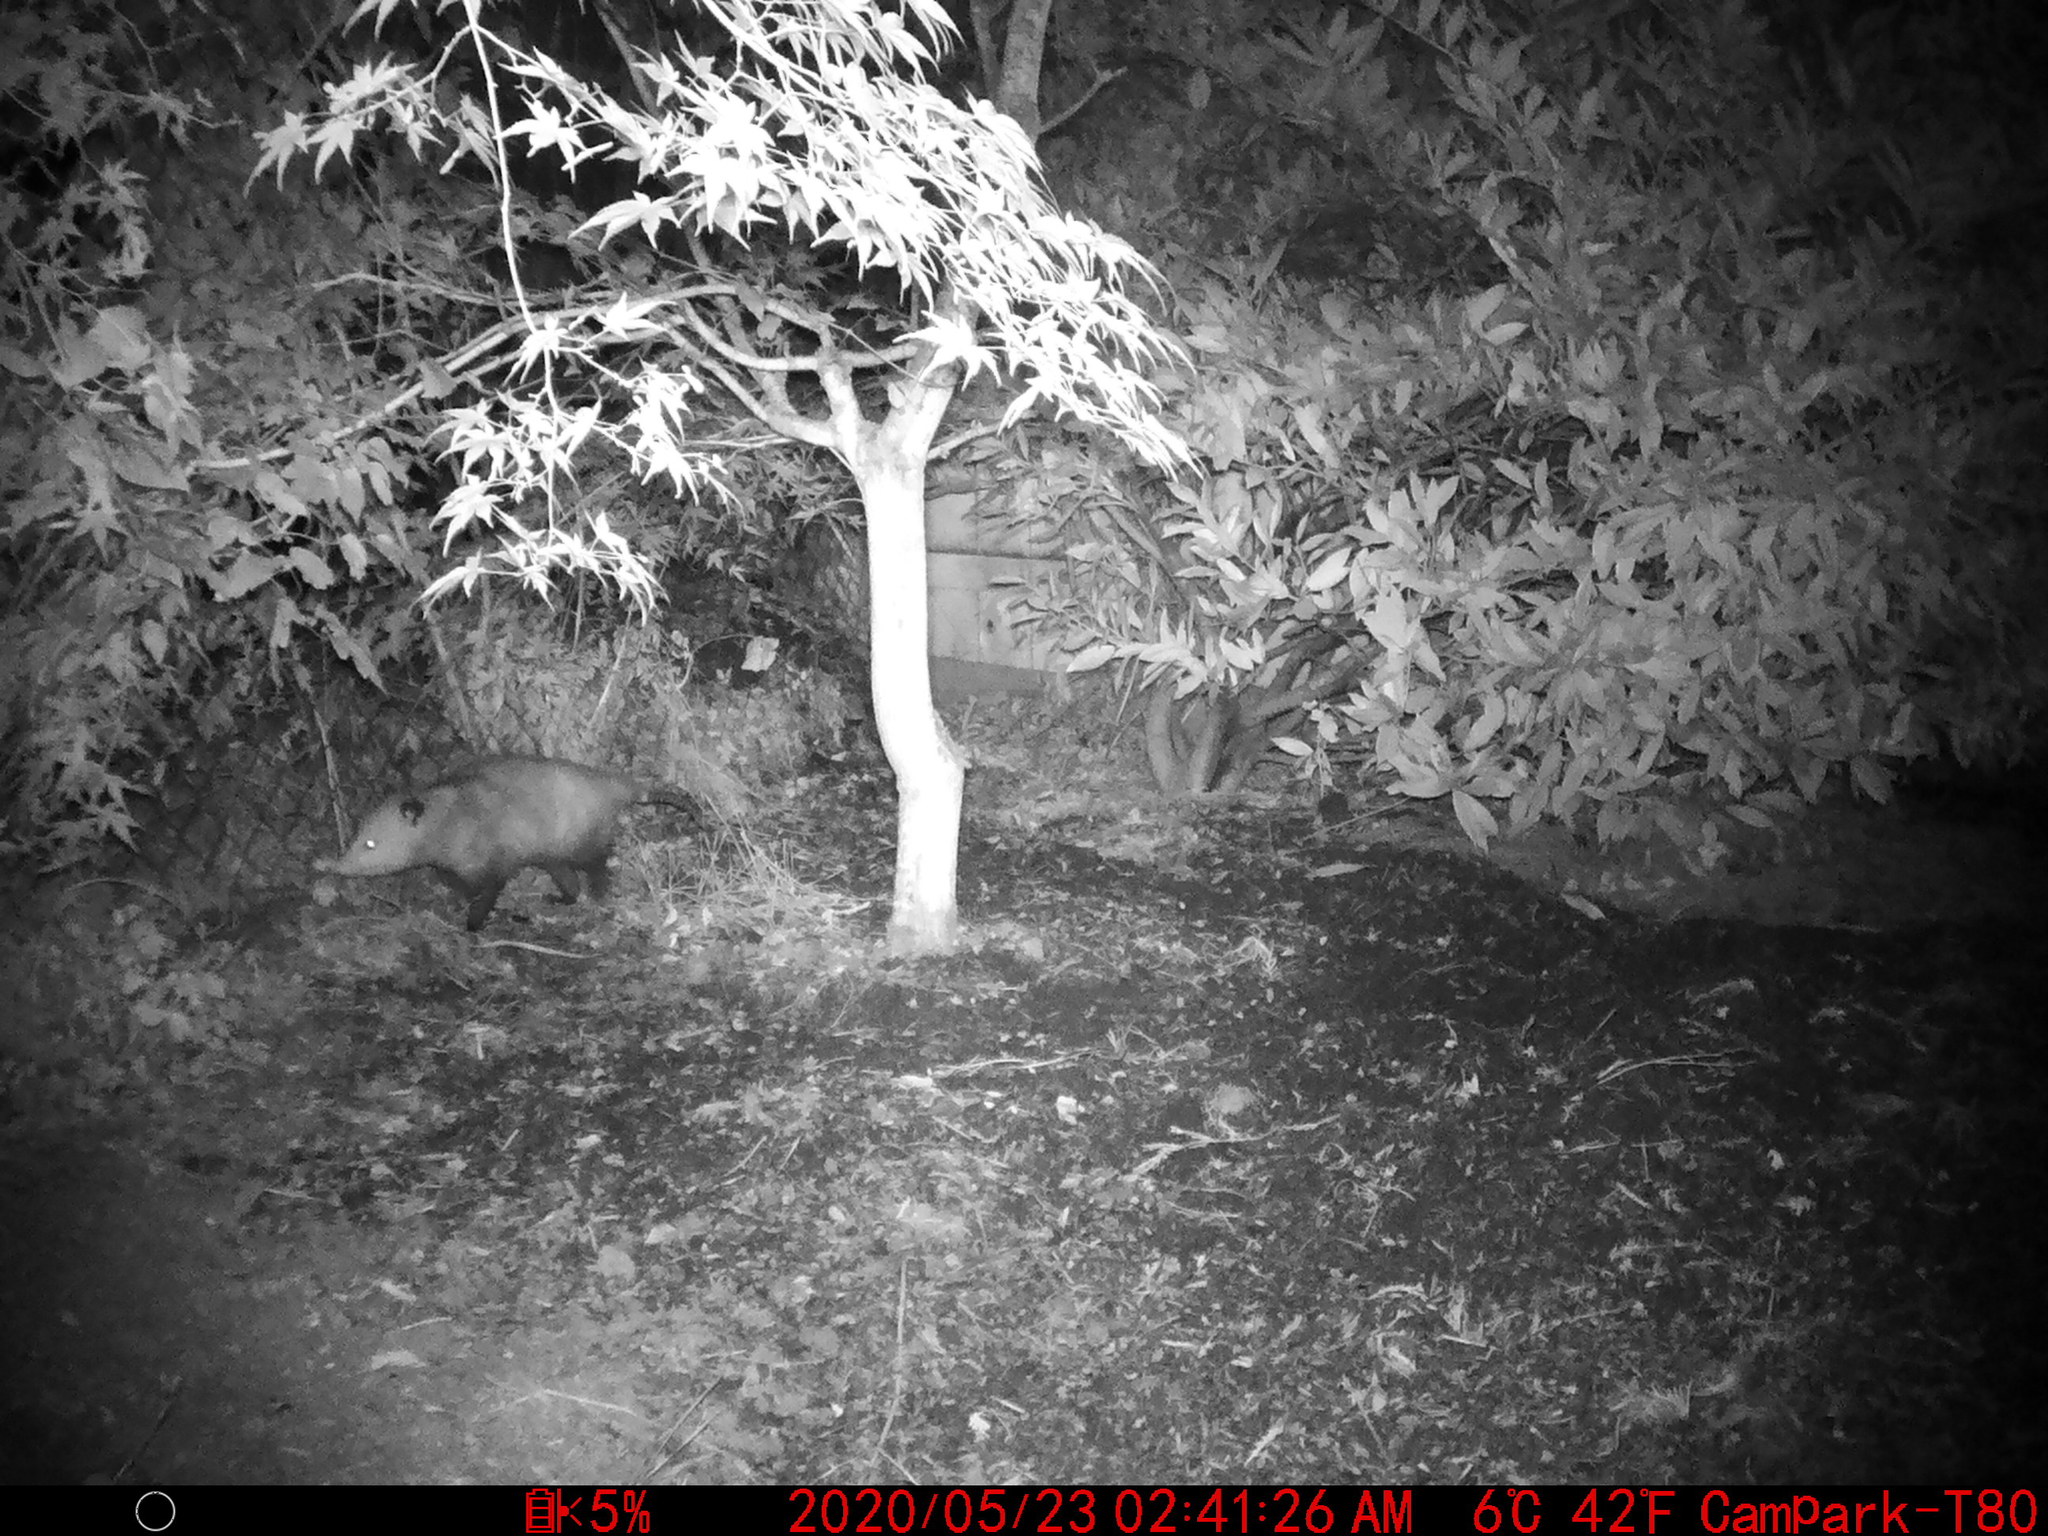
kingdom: Animalia
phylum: Chordata
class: Mammalia
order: Didelphimorphia
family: Didelphidae
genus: Didelphis
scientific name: Didelphis virginiana
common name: Virginia opossum
